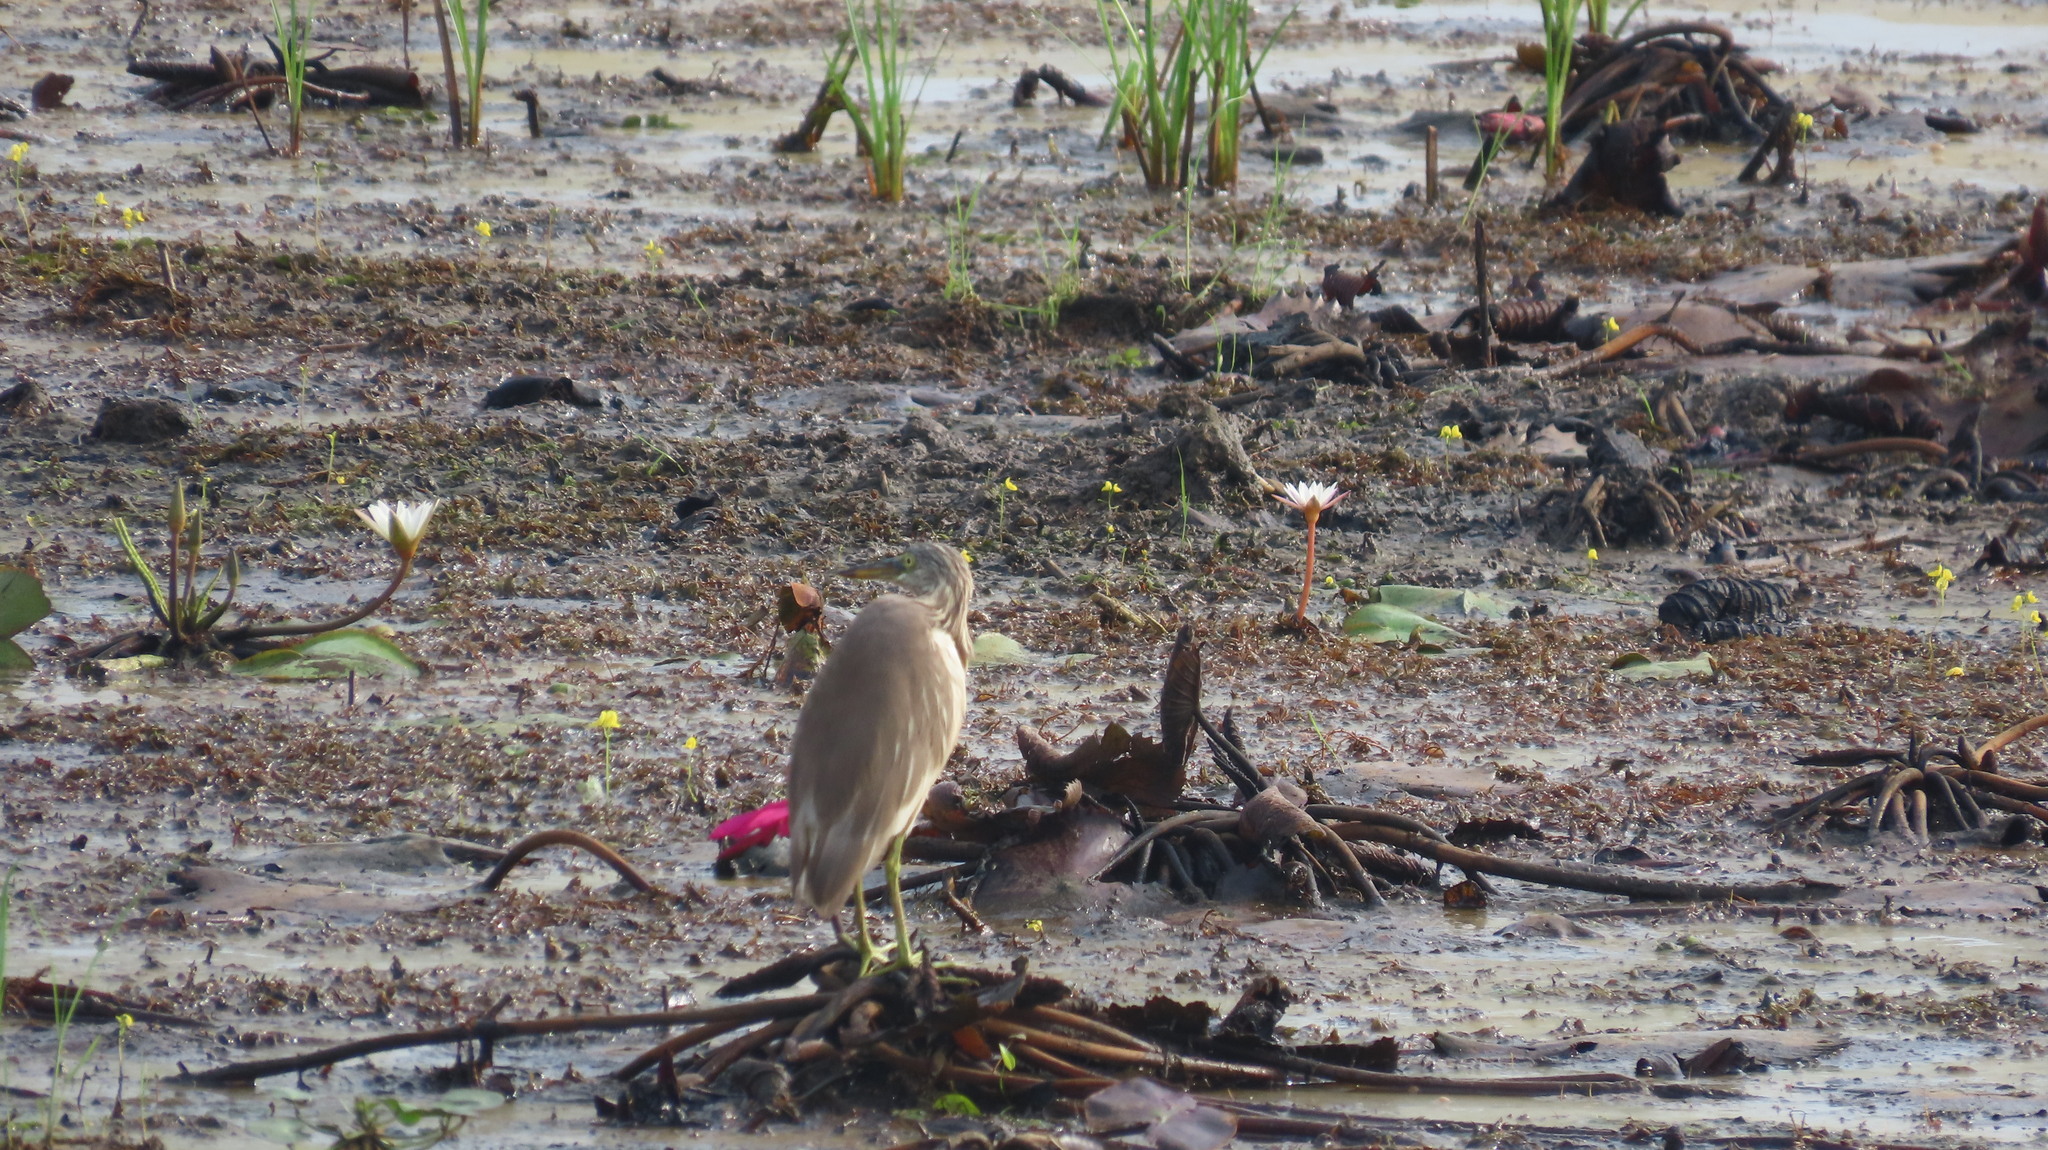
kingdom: Animalia
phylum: Chordata
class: Aves
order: Pelecaniformes
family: Ardeidae
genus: Ardeola
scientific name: Ardeola grayii
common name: Indian pond heron
